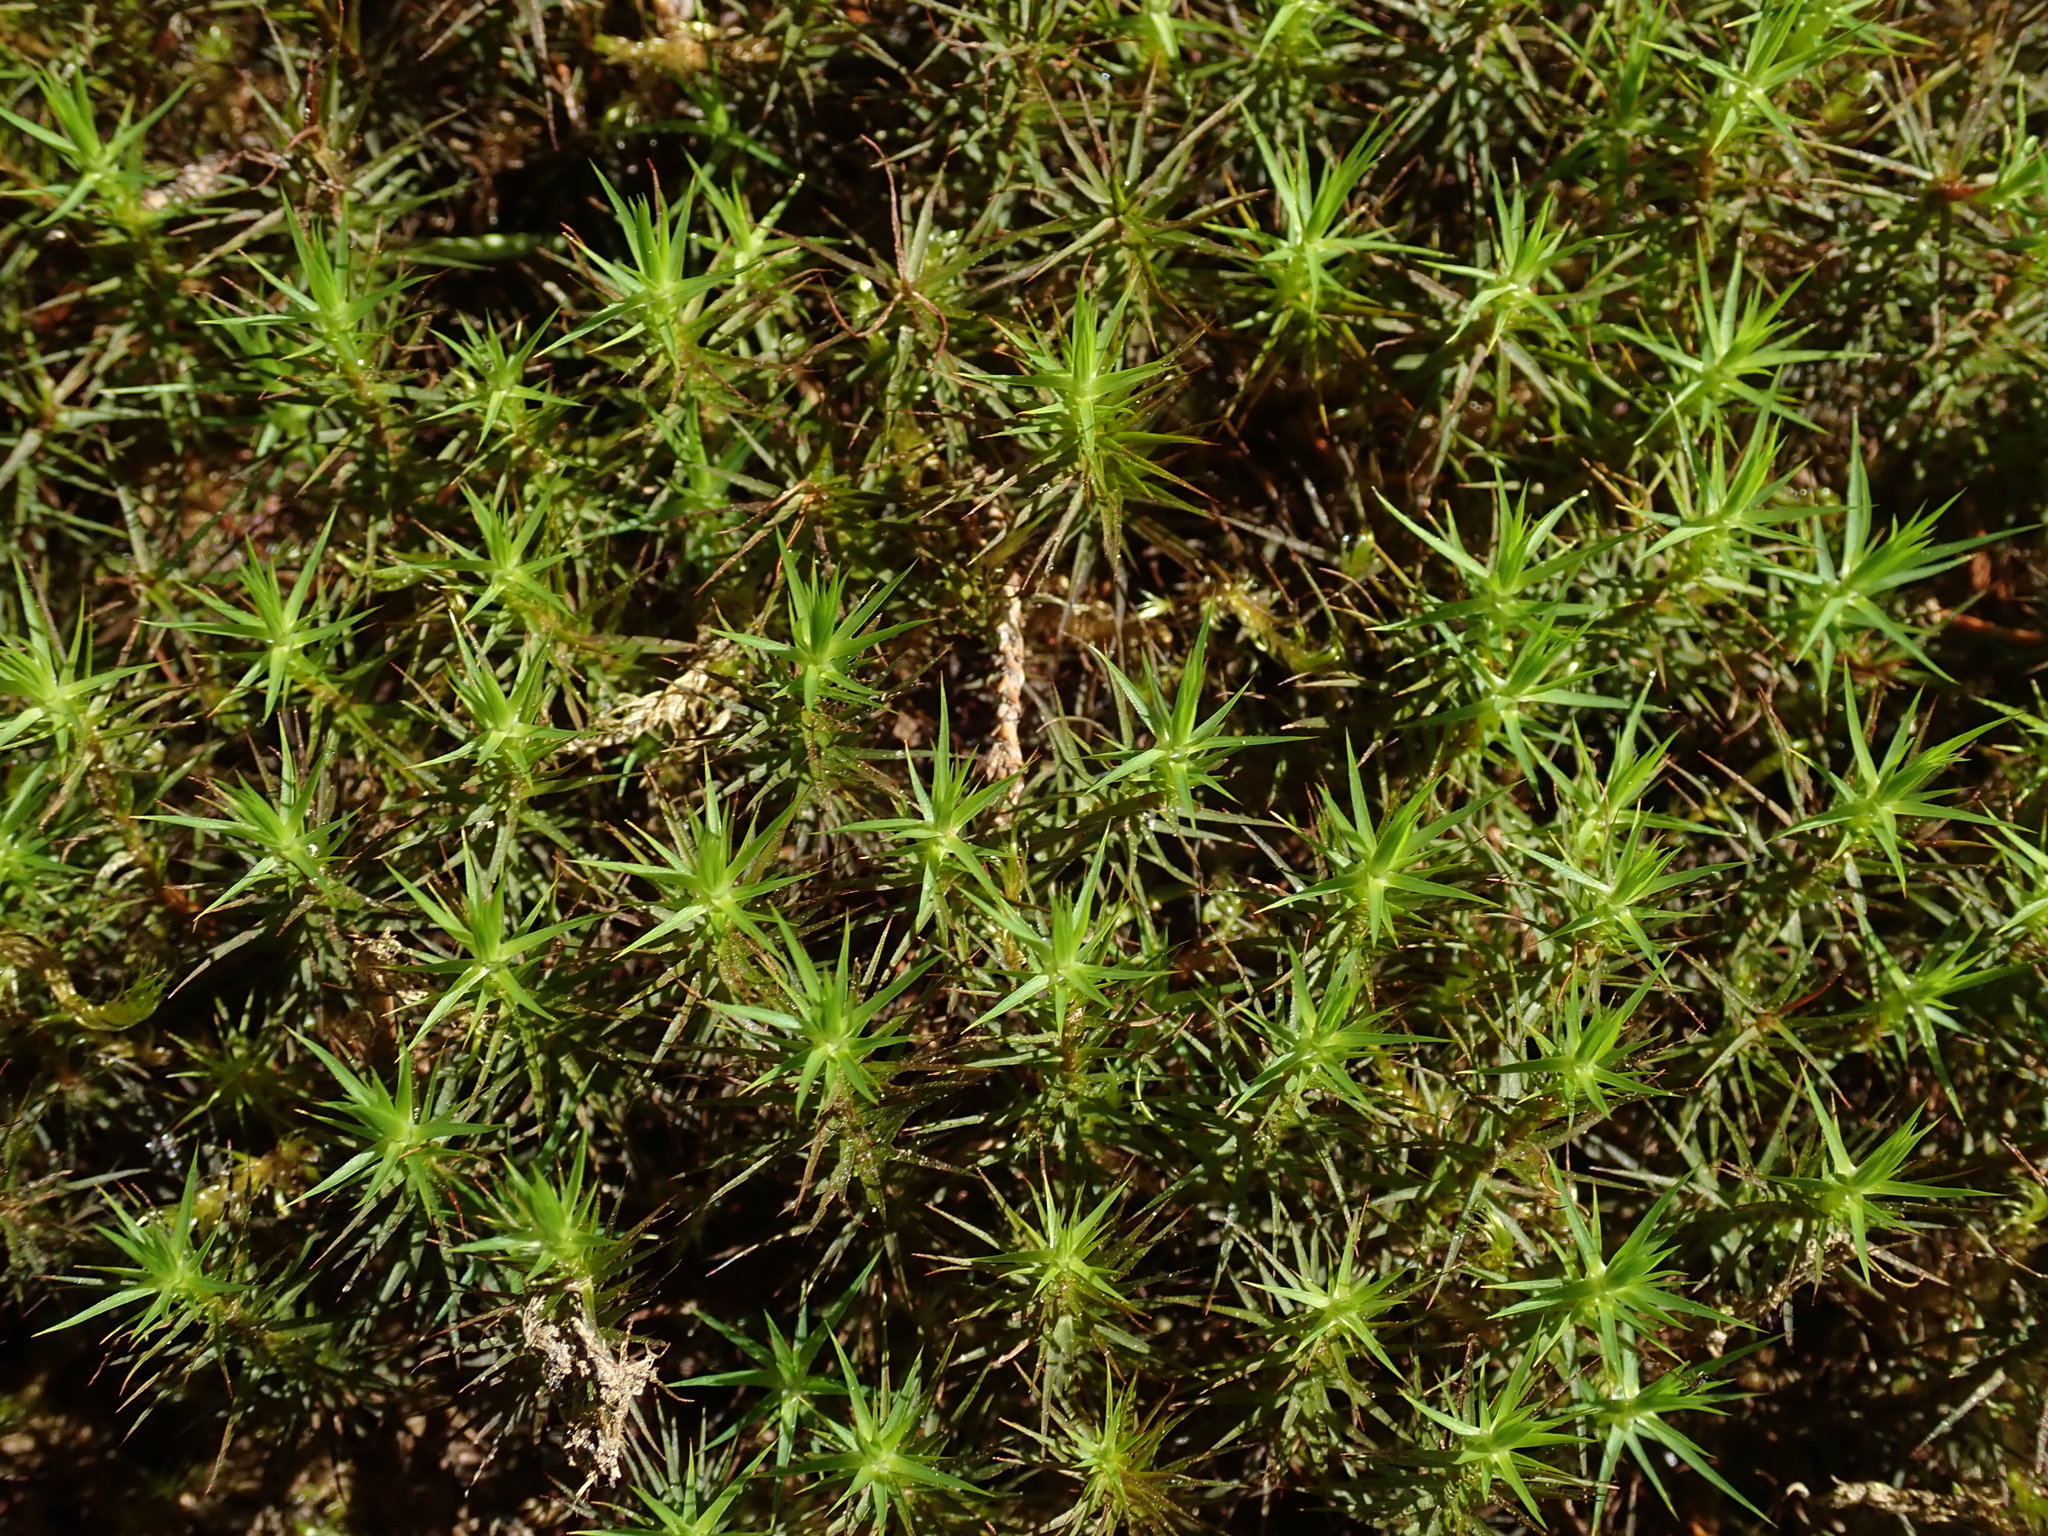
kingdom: Plantae
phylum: Bryophyta
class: Polytrichopsida
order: Polytrichales
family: Polytrichaceae
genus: Polytrichum
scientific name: Polytrichum commune
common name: Common haircap
